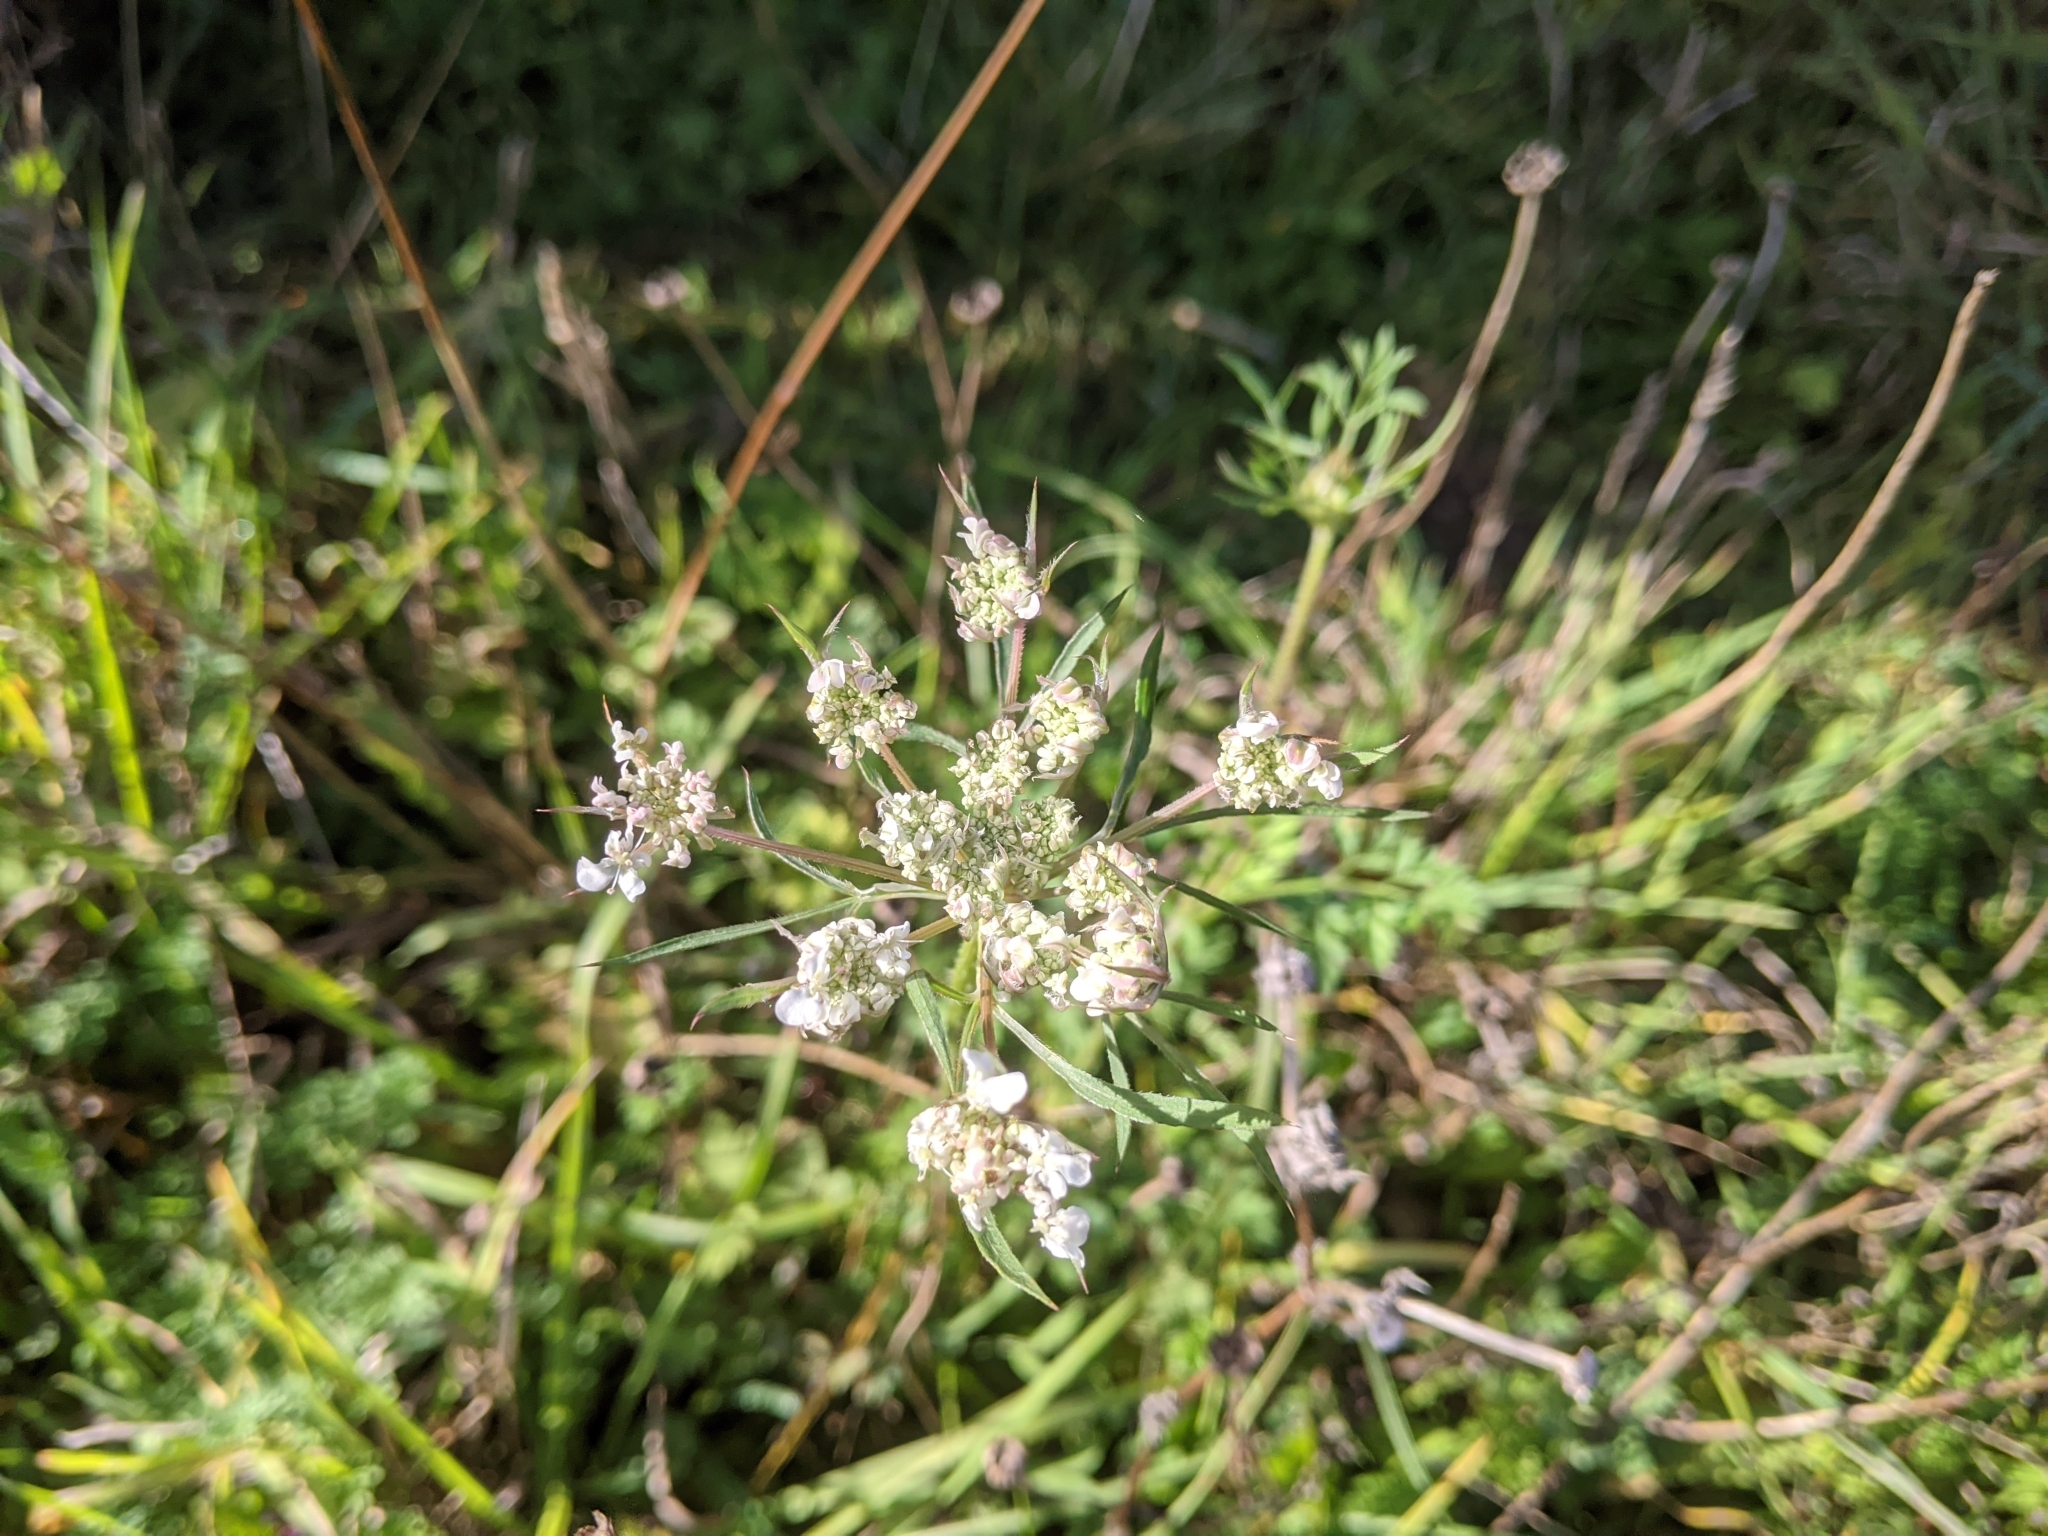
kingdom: Plantae
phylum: Tracheophyta
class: Magnoliopsida
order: Apiales
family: Apiaceae
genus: Daucus
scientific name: Daucus carota
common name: Wild carrot
